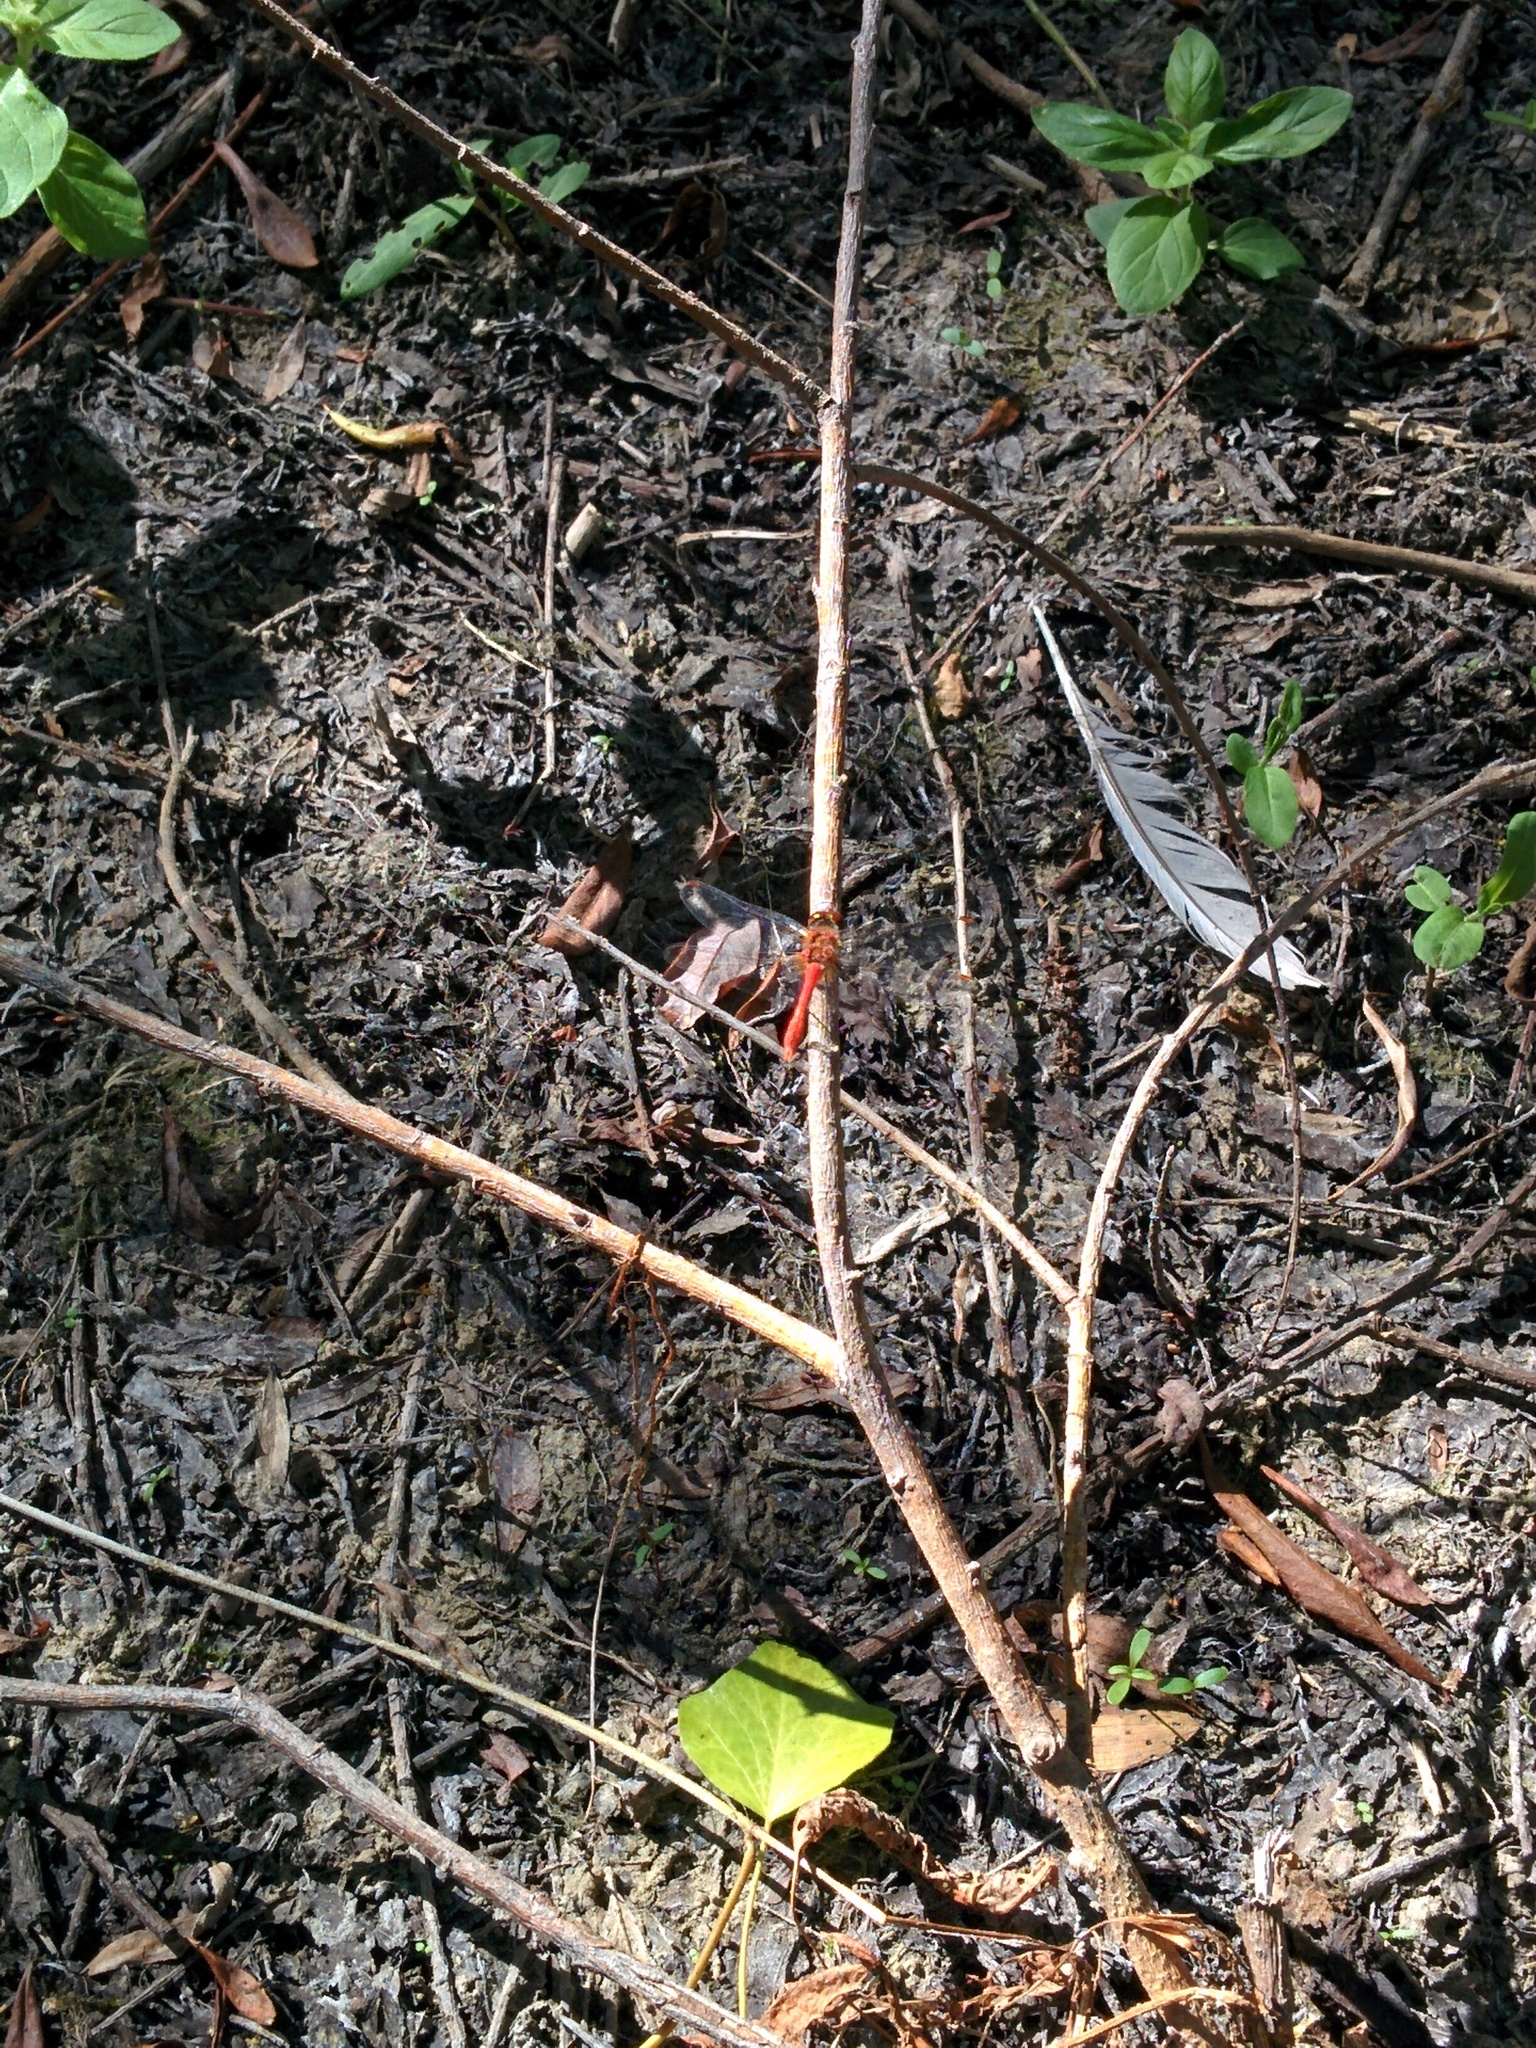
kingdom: Animalia
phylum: Arthropoda
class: Insecta
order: Odonata
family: Libellulidae
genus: Sympetrum
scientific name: Sympetrum sanguineum
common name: Ruddy darter
